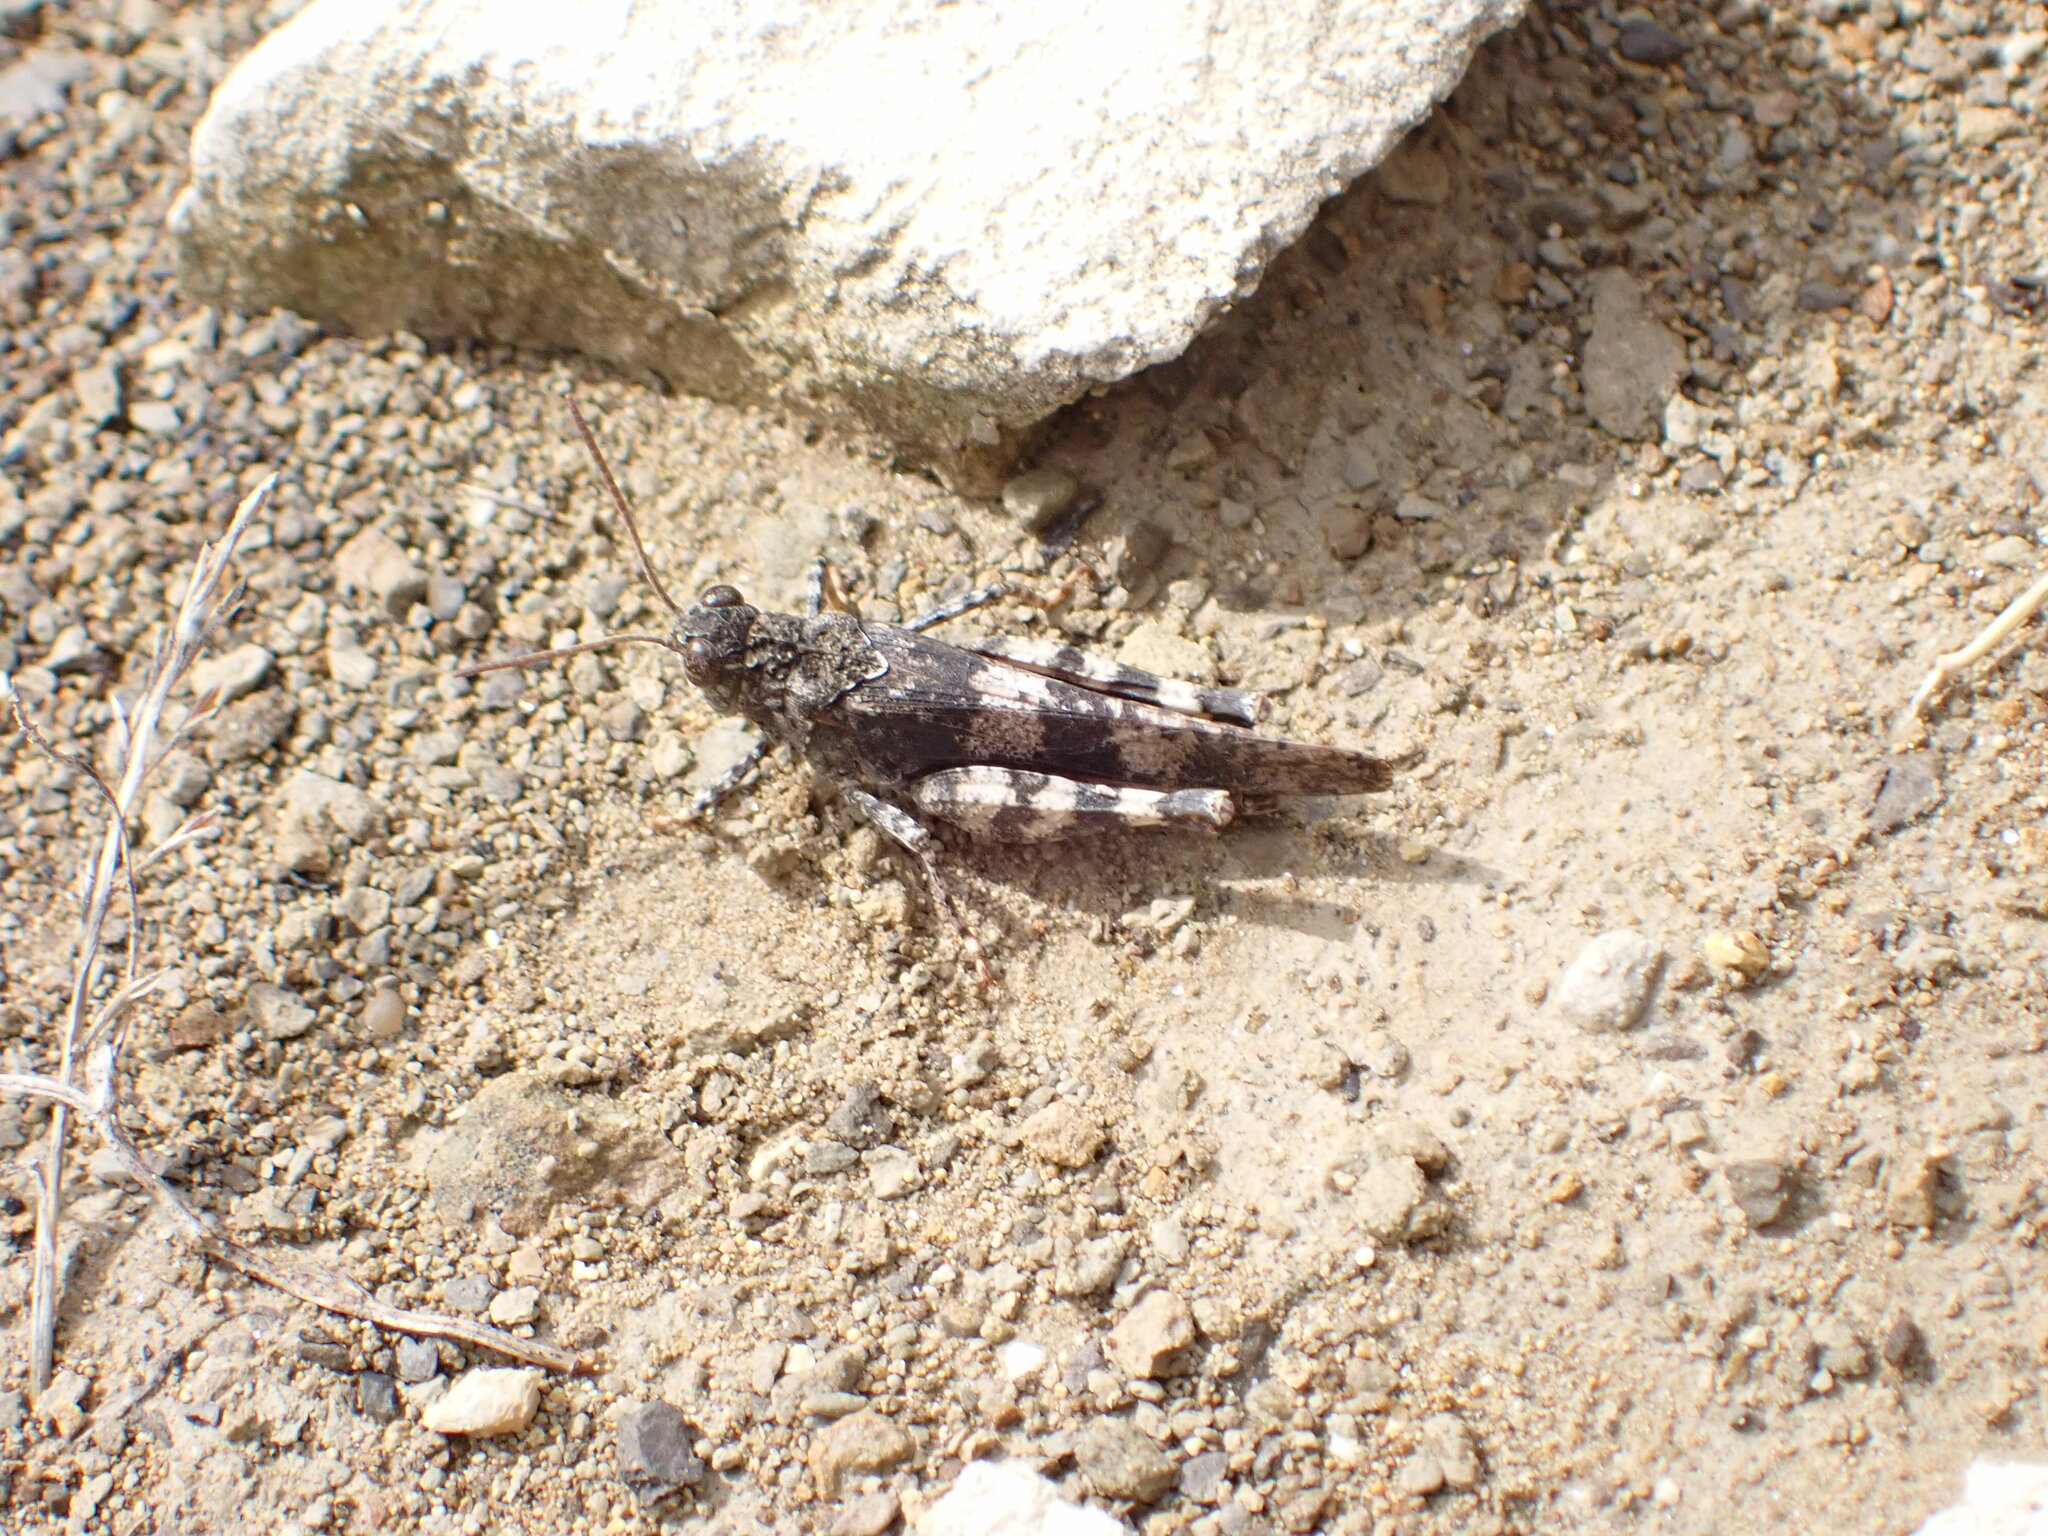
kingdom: Animalia
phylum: Arthropoda
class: Insecta
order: Orthoptera
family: Acrididae
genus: Oedipoda
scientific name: Oedipoda germanica
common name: Red band-winged grasshopper
